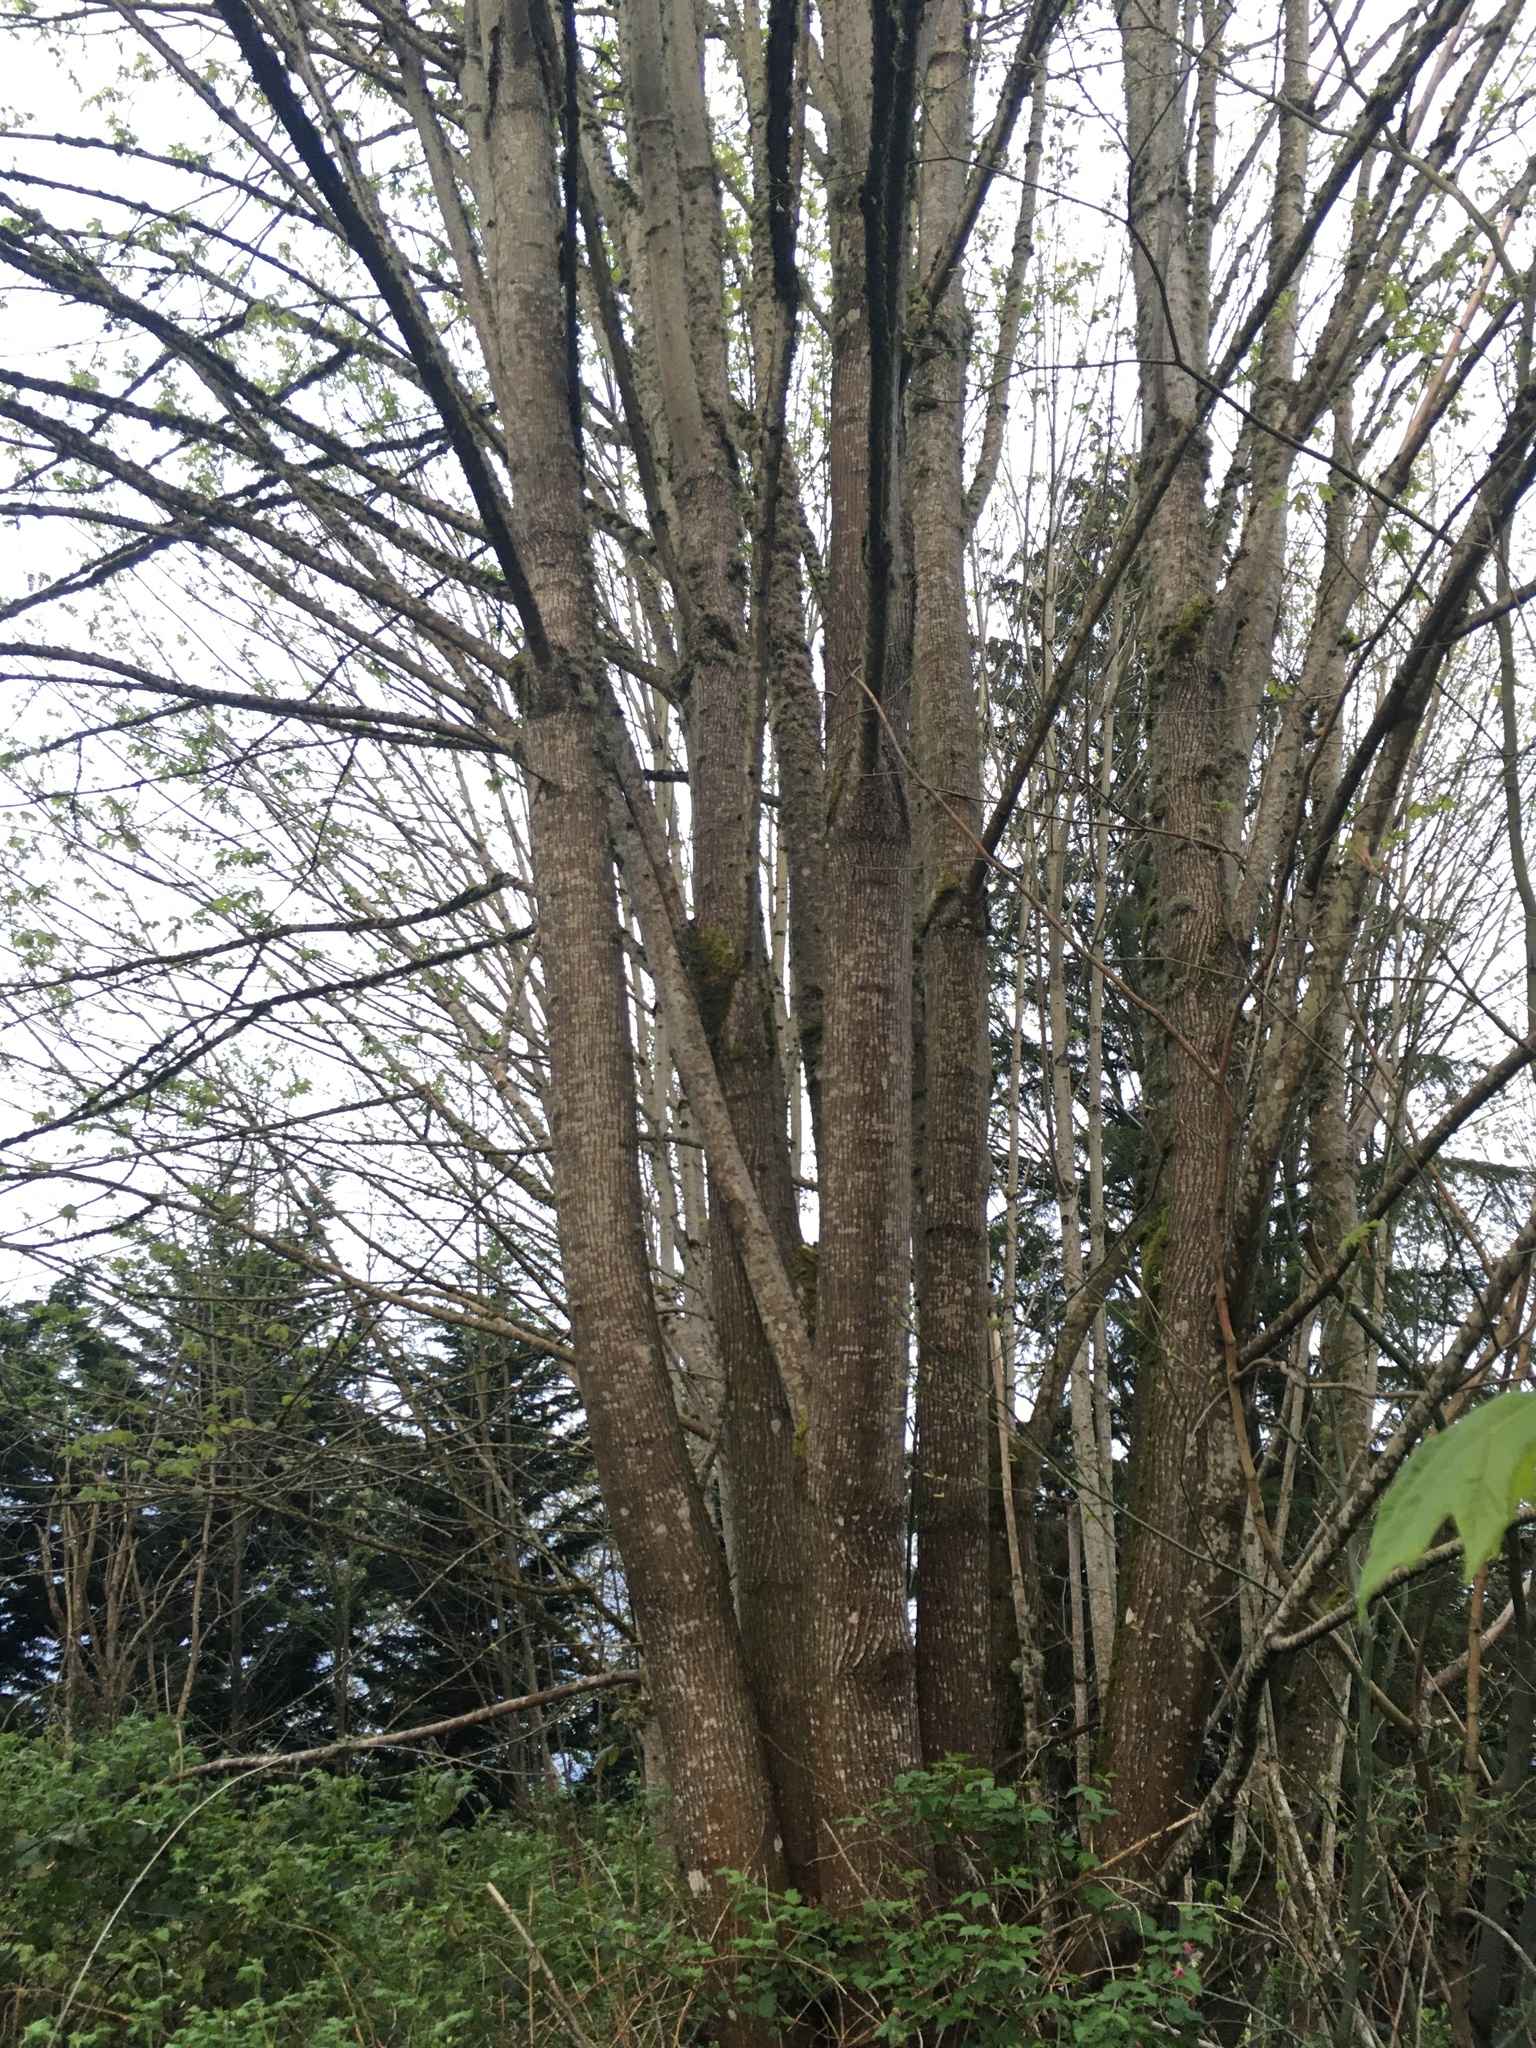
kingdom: Plantae
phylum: Tracheophyta
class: Magnoliopsida
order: Sapindales
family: Sapindaceae
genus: Acer
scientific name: Acer macrophyllum
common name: Oregon maple
